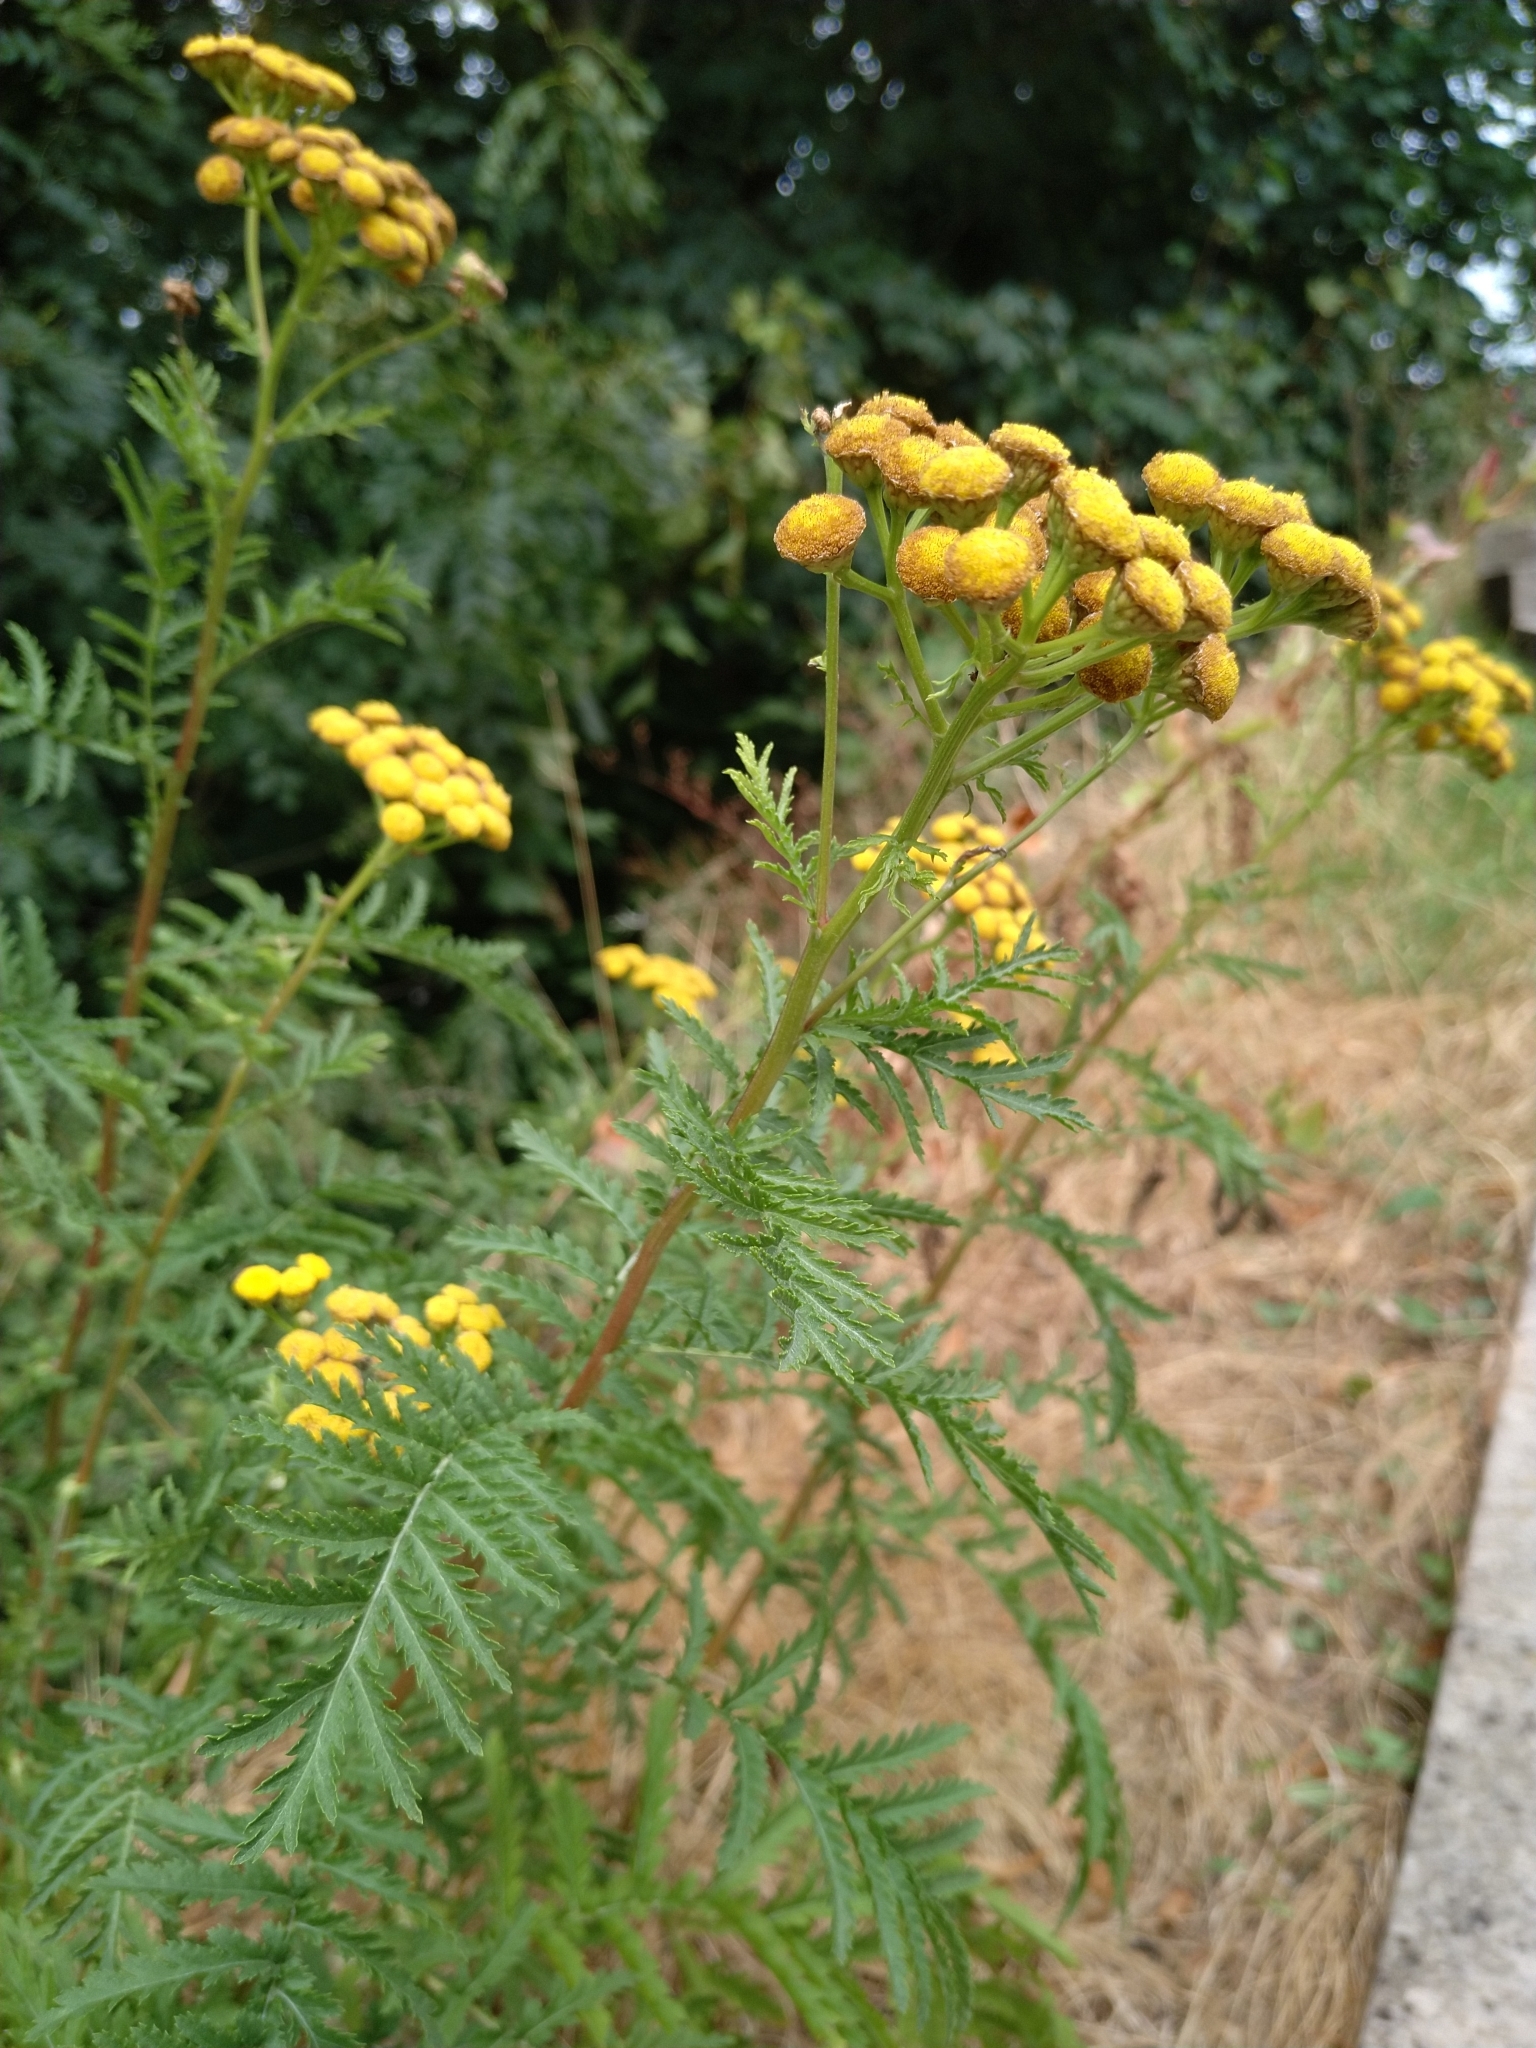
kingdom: Plantae
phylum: Tracheophyta
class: Magnoliopsida
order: Asterales
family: Asteraceae
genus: Tanacetum
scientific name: Tanacetum vulgare
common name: Common tansy
